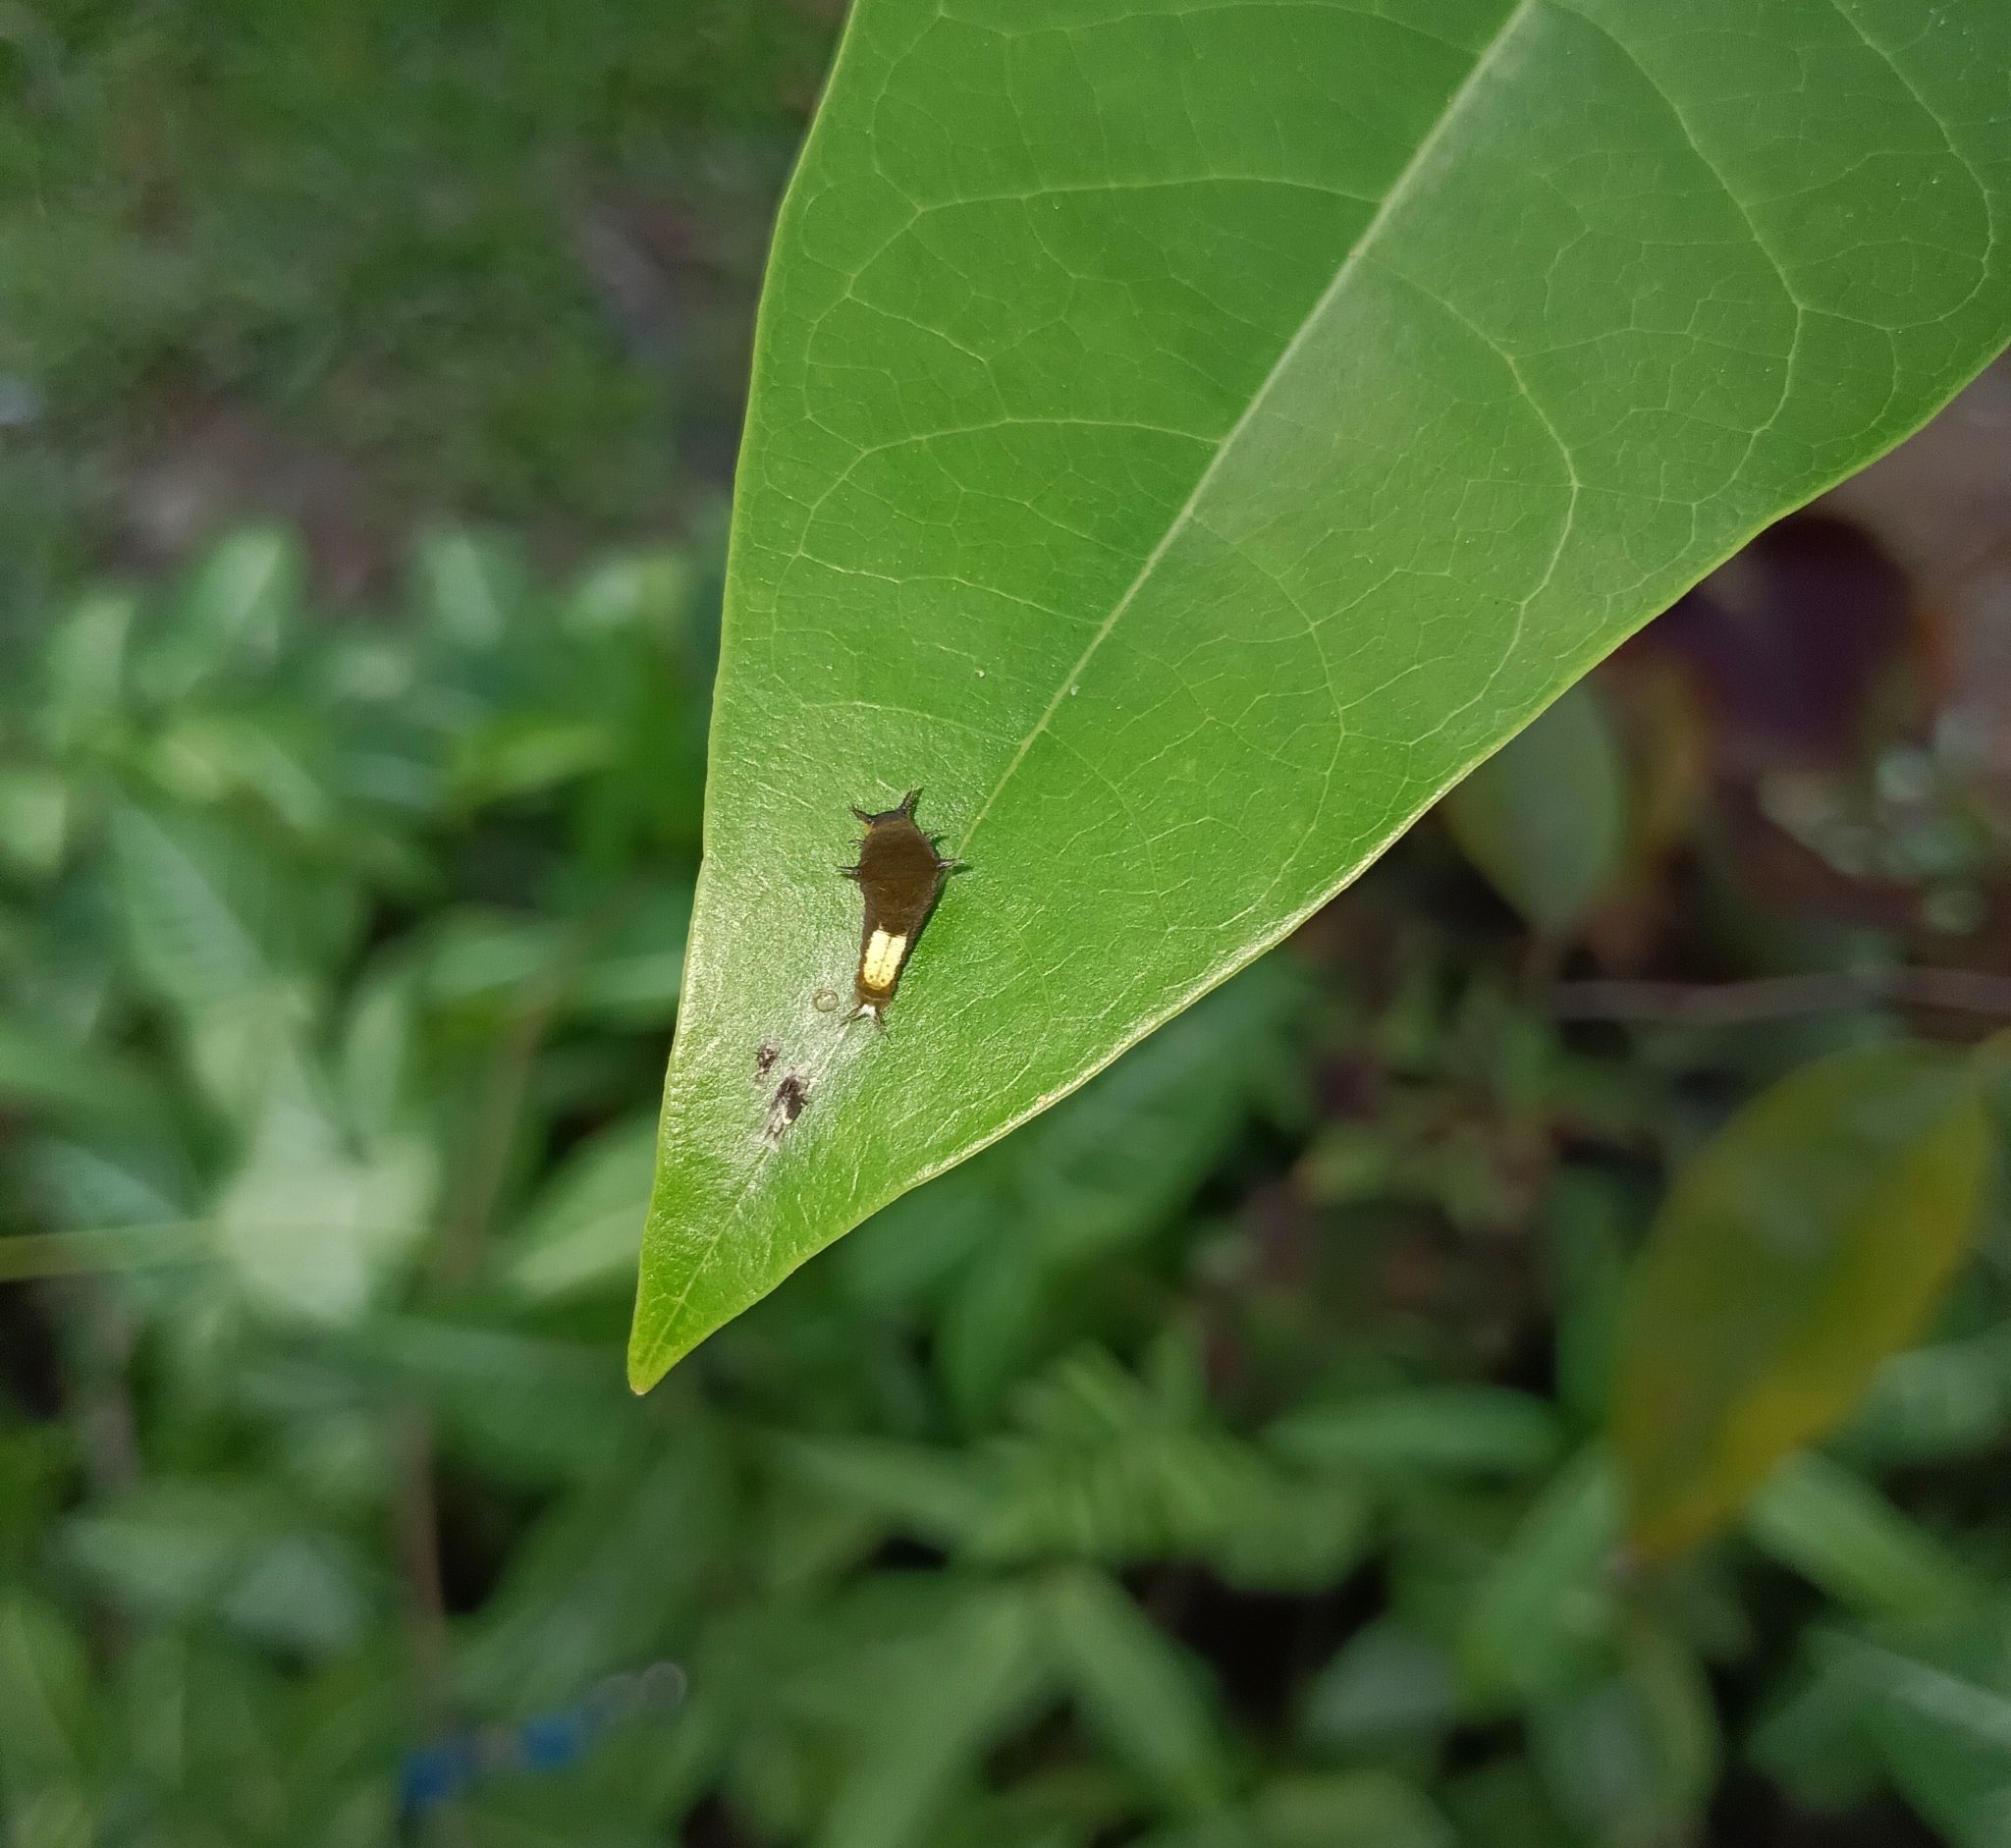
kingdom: Animalia
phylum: Arthropoda
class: Insecta
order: Lepidoptera
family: Papilionidae
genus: Graphium
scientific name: Graphium agamemnon
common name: Tailed jay
